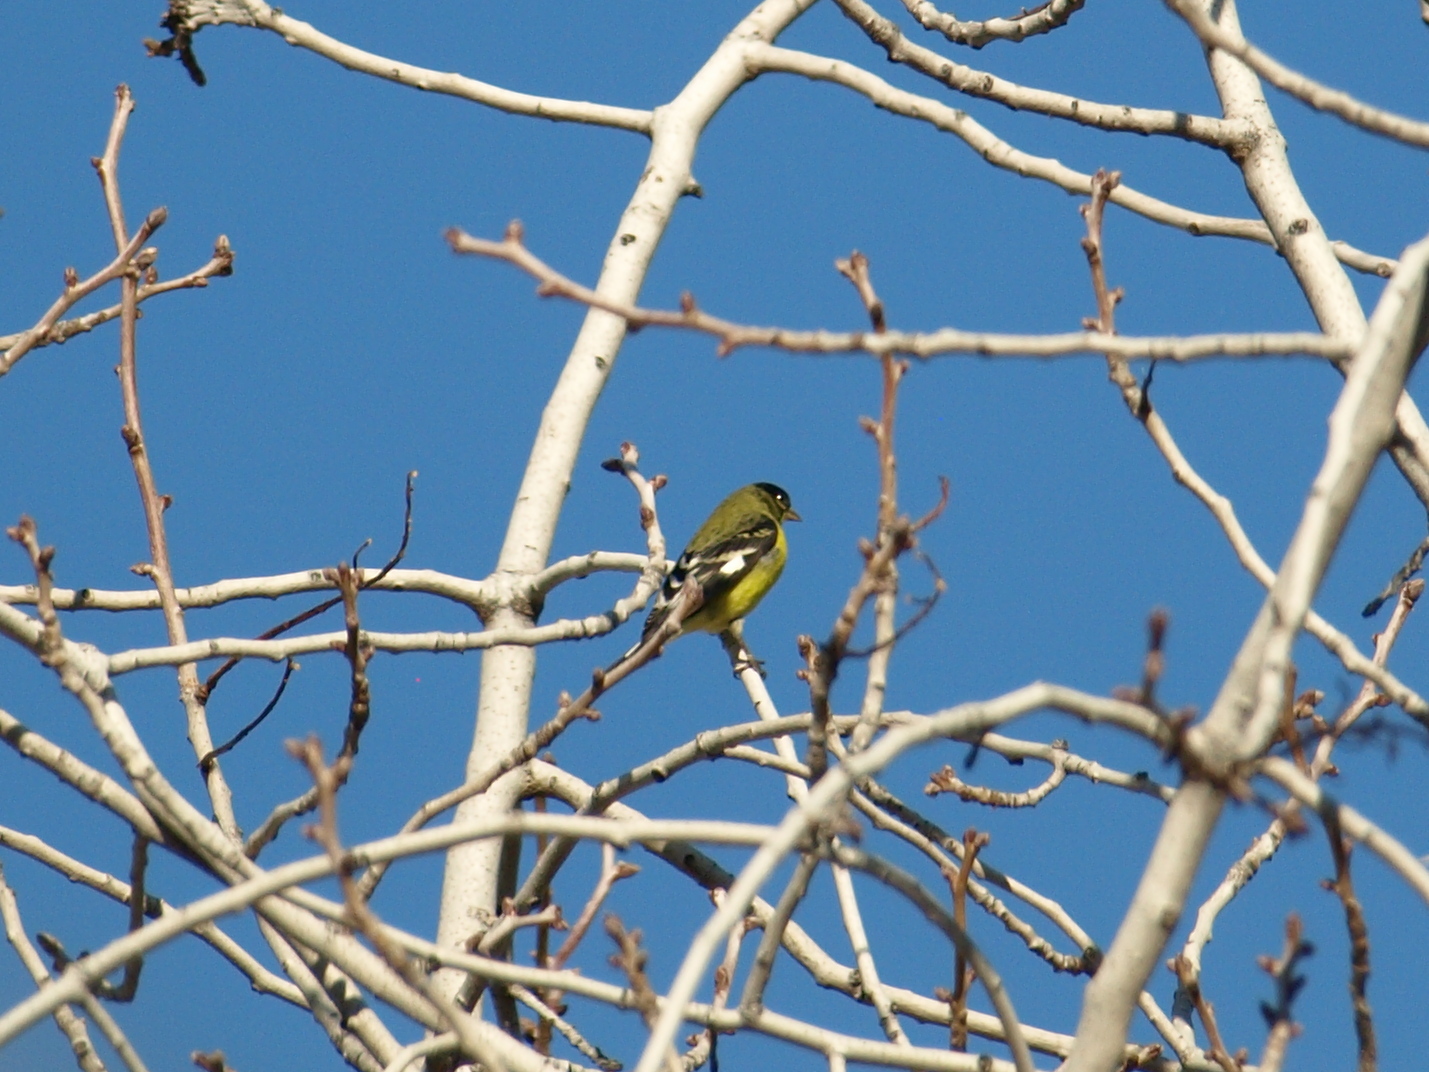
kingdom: Animalia
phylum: Chordata
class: Aves
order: Passeriformes
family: Fringillidae
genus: Spinus
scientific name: Spinus psaltria
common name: Lesser goldfinch
